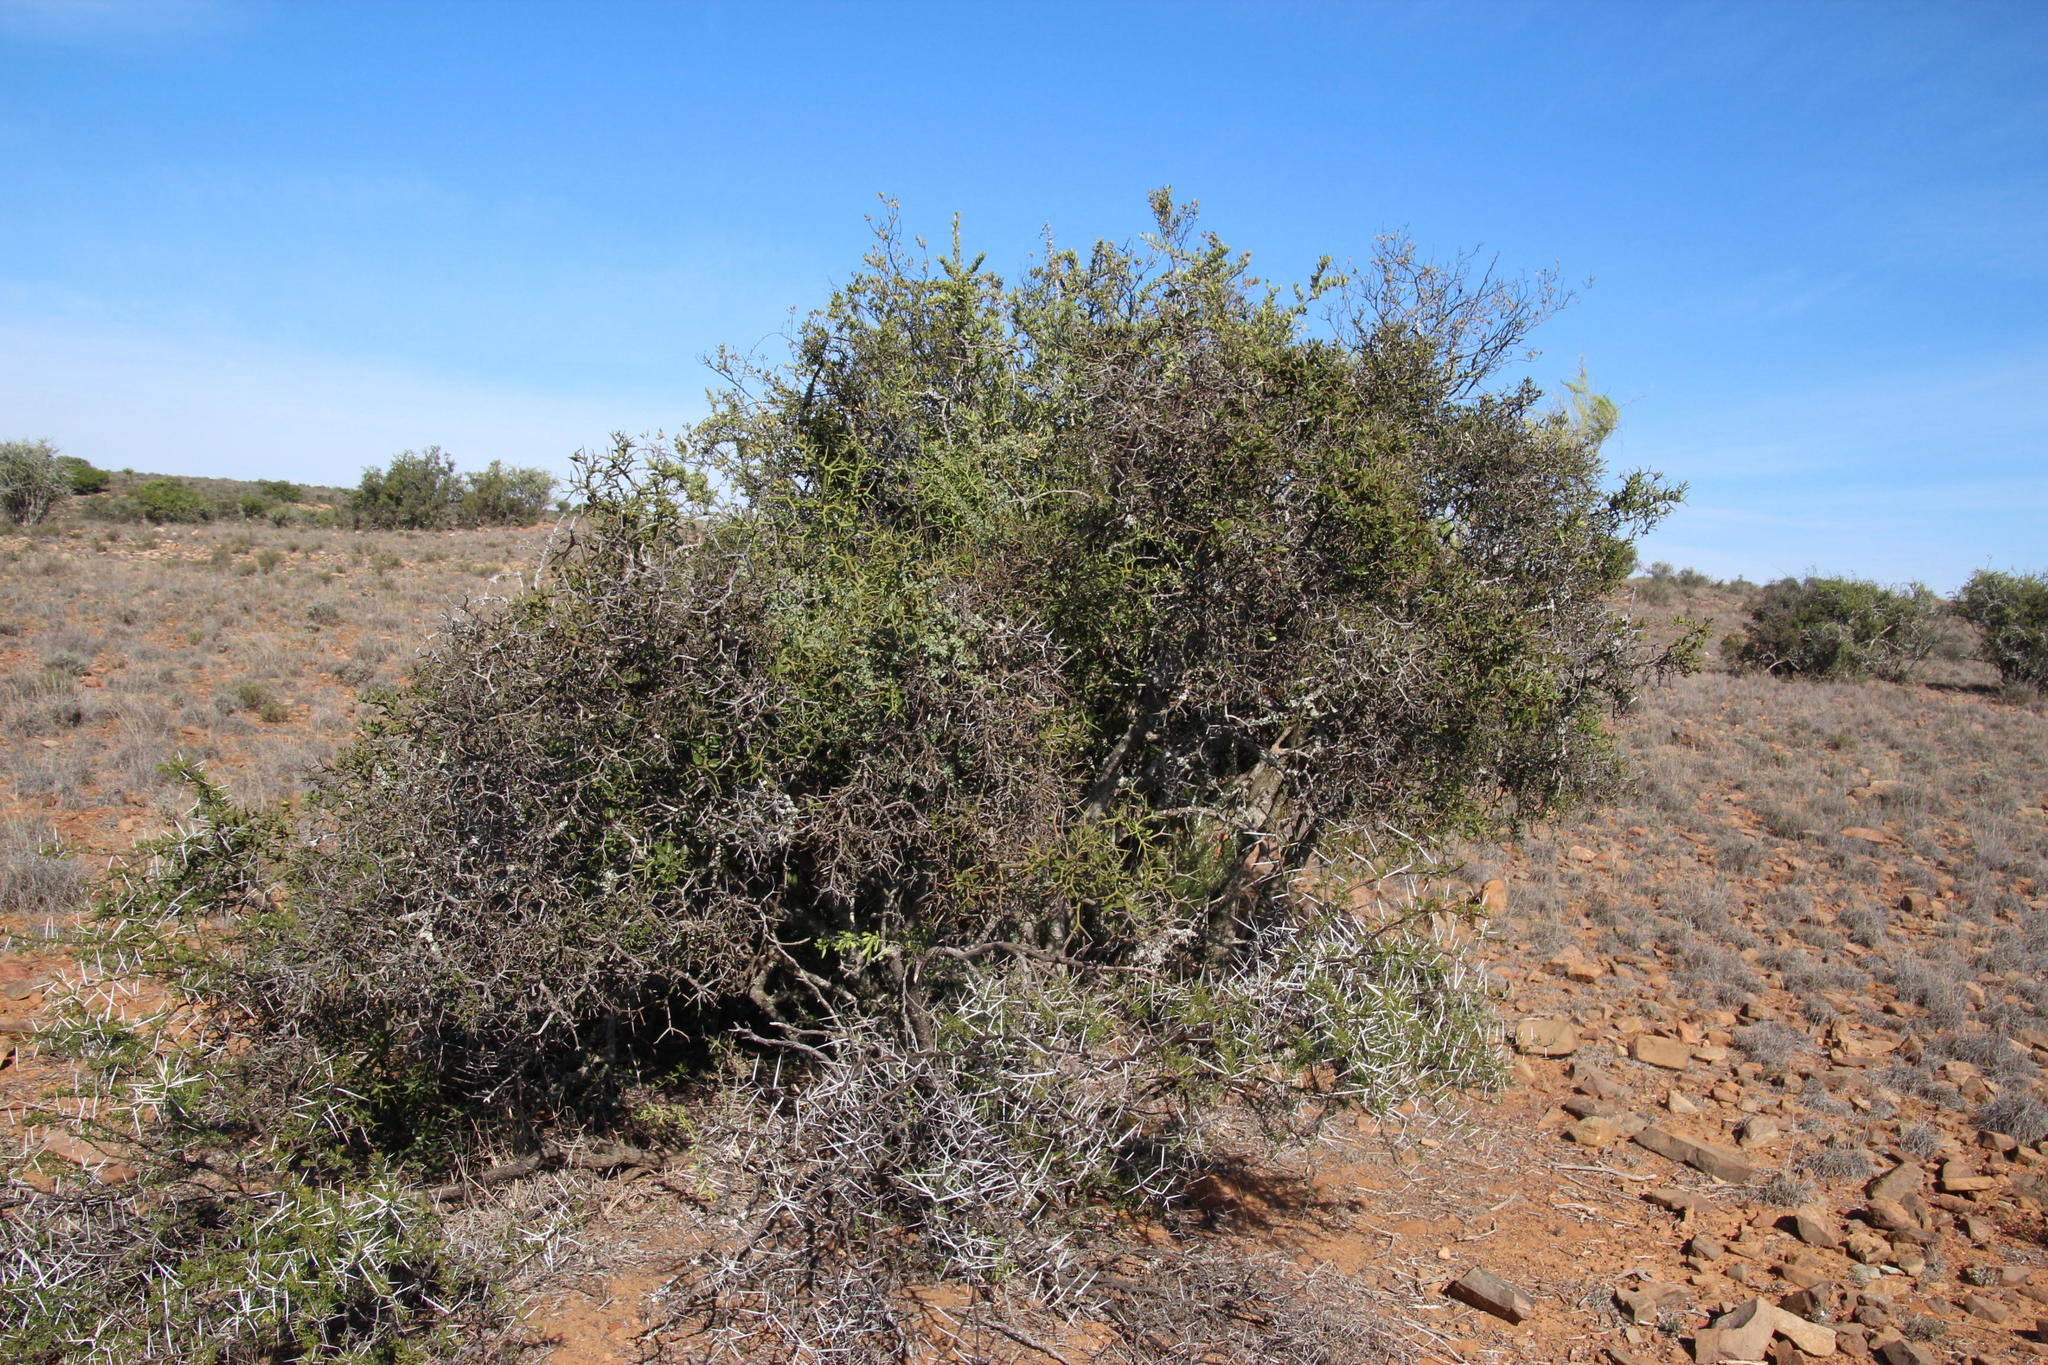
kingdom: Plantae
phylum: Tracheophyta
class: Magnoliopsida
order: Gentianales
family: Apocynaceae
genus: Carissa
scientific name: Carissa haematocarpa
